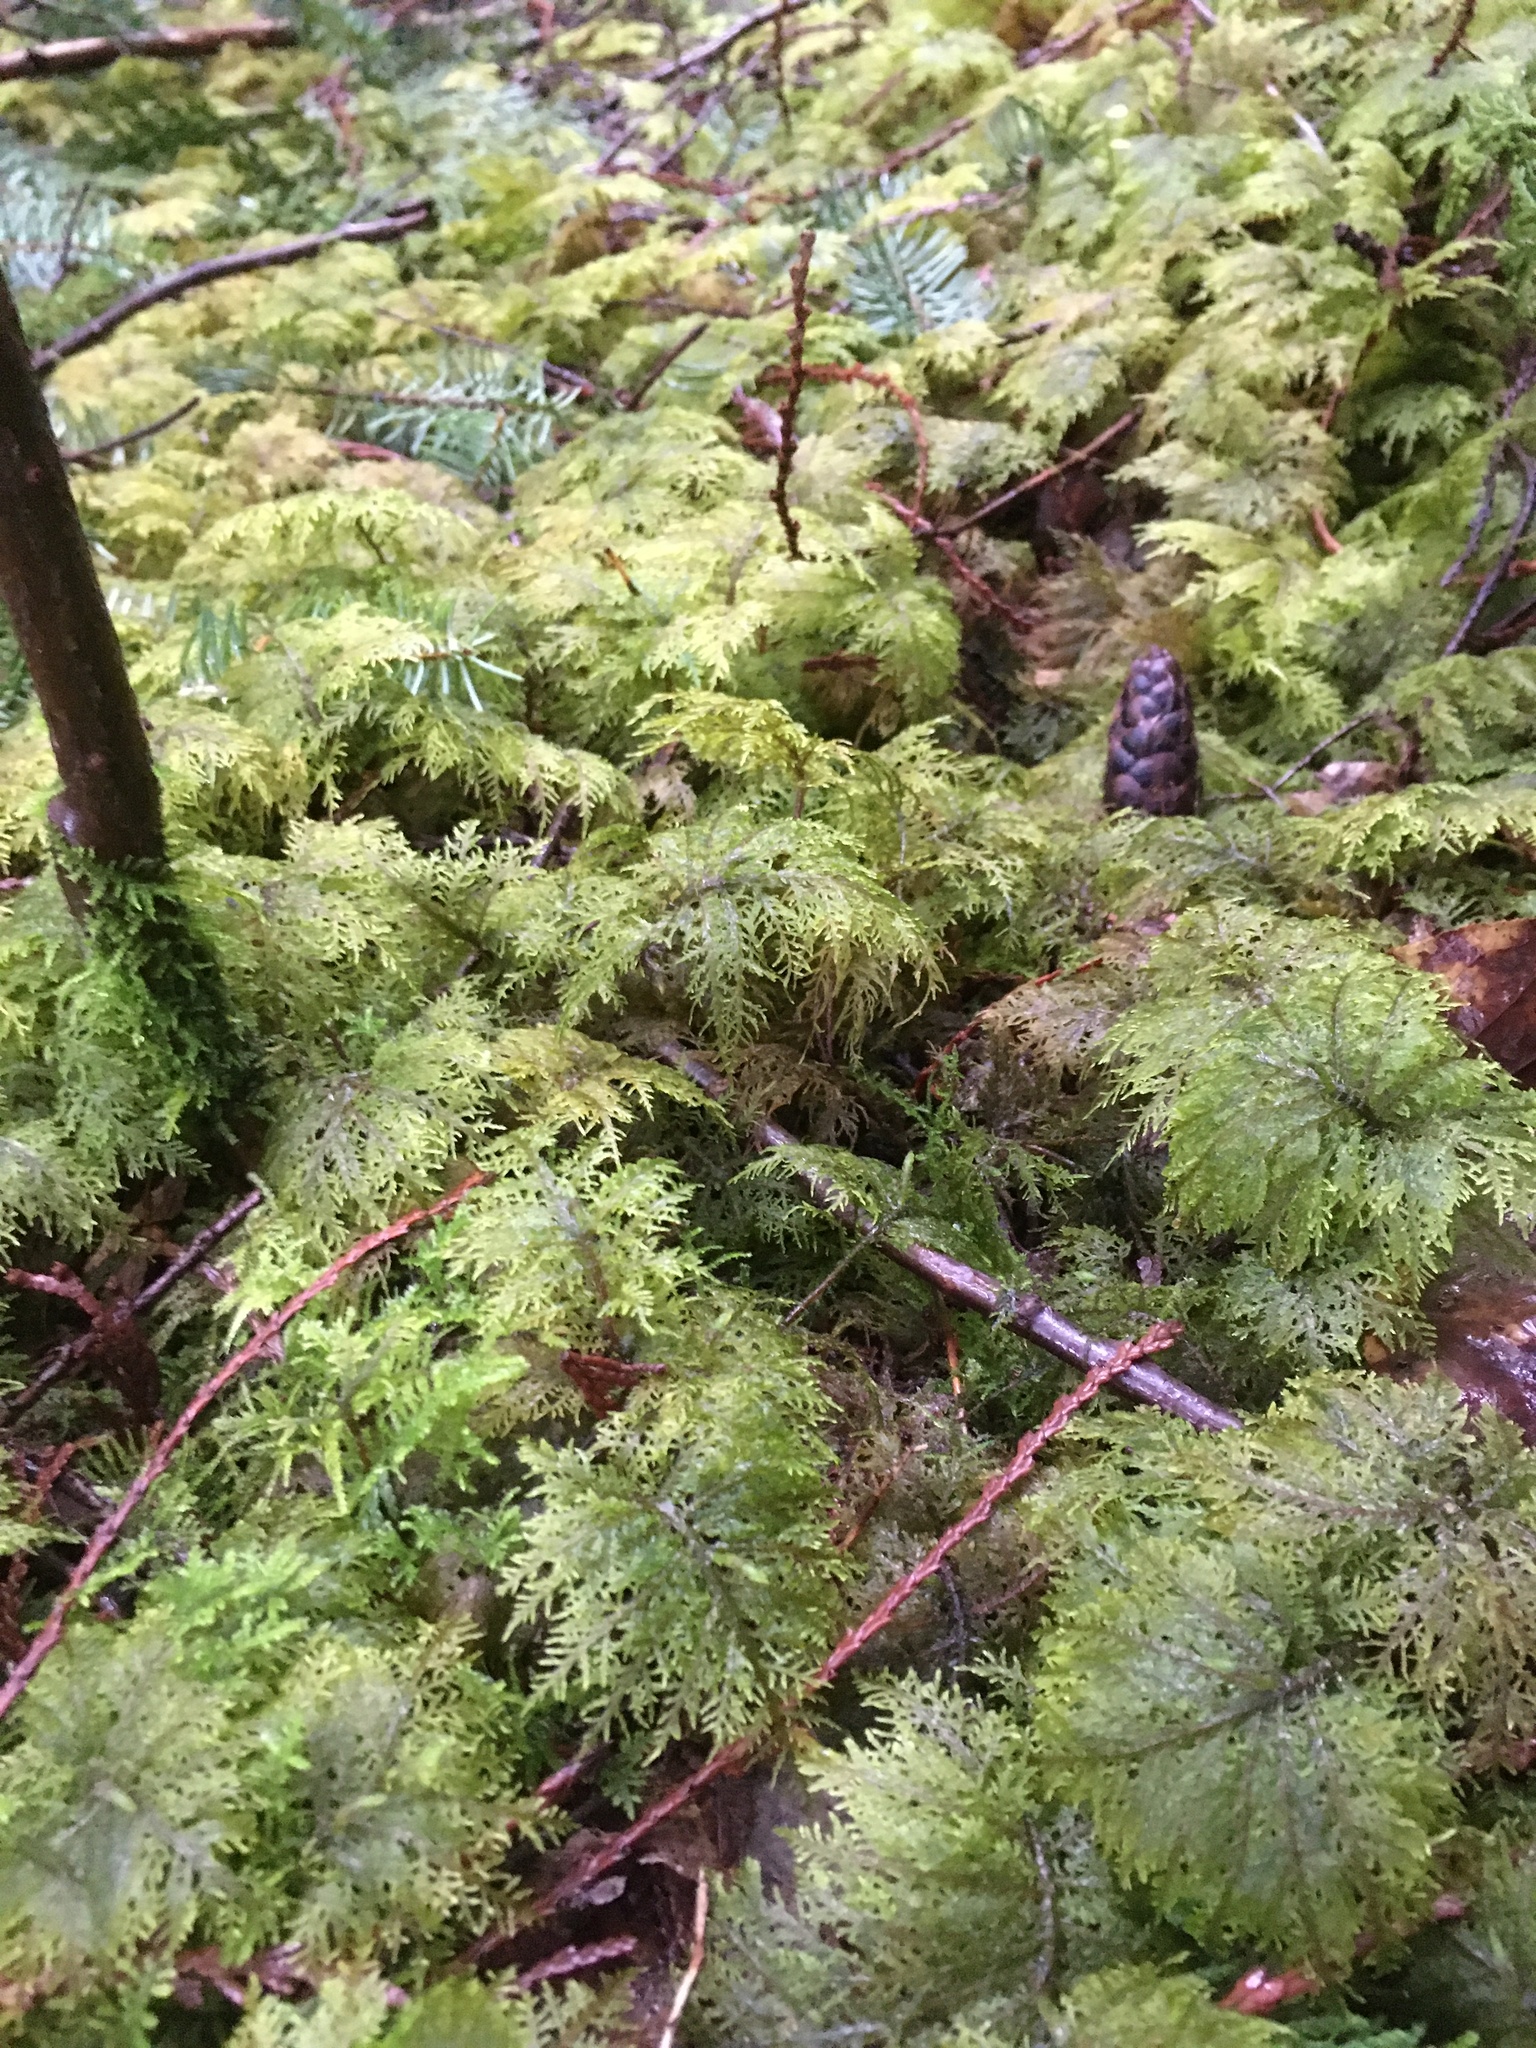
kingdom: Plantae
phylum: Bryophyta
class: Bryopsida
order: Hypnales
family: Hylocomiaceae
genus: Hylocomium
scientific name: Hylocomium splendens
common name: Stairstep moss
